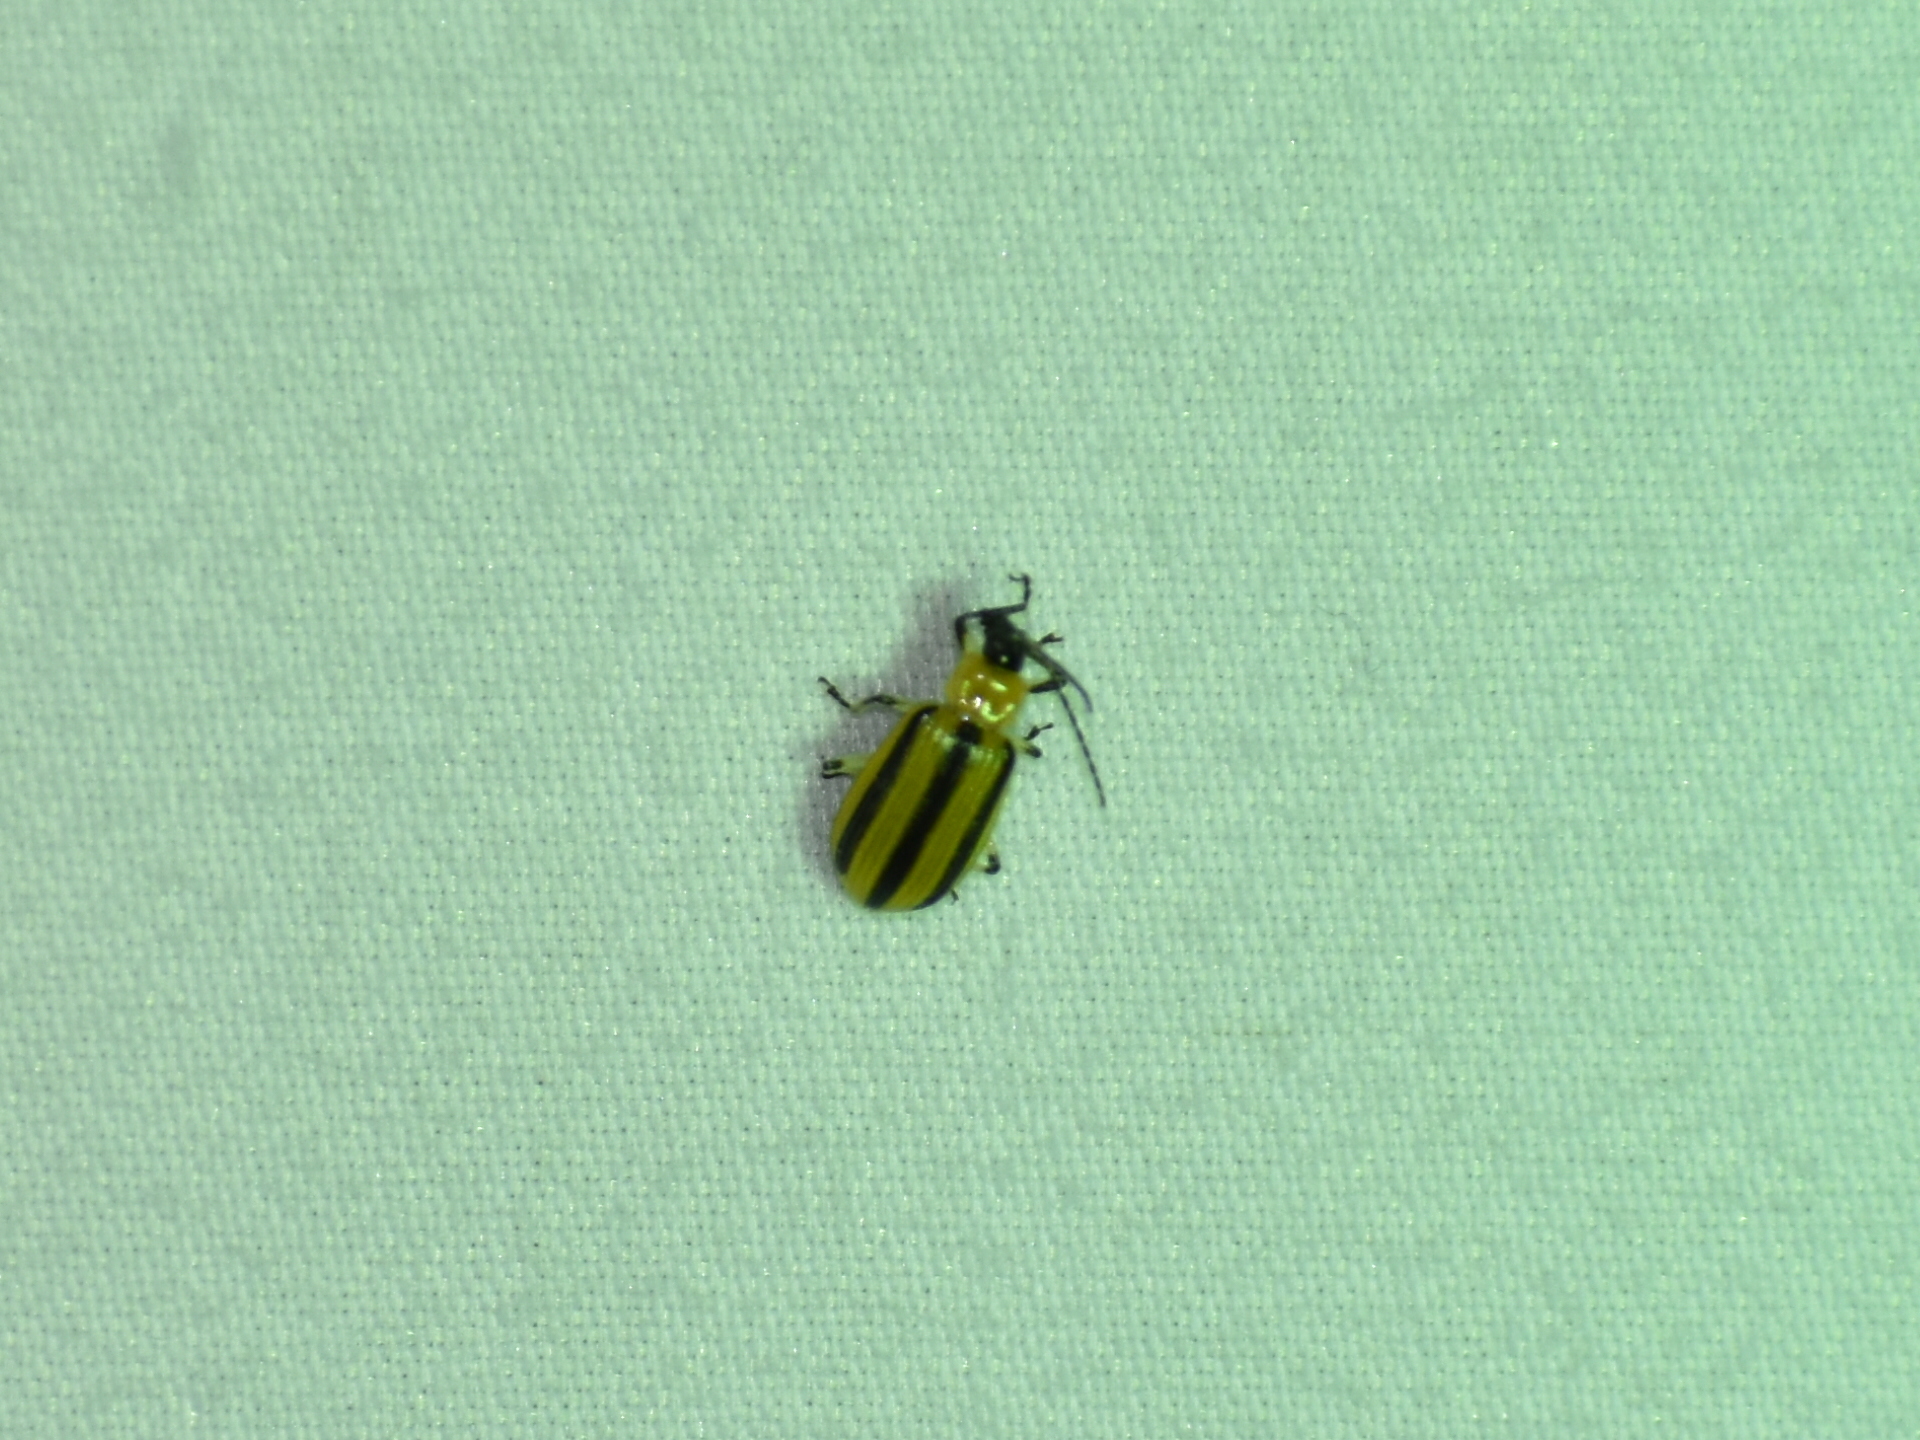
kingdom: Animalia
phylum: Arthropoda
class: Insecta
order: Coleoptera
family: Chrysomelidae
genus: Acalymma
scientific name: Acalymma vittatum
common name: Striped cucumber beetle
